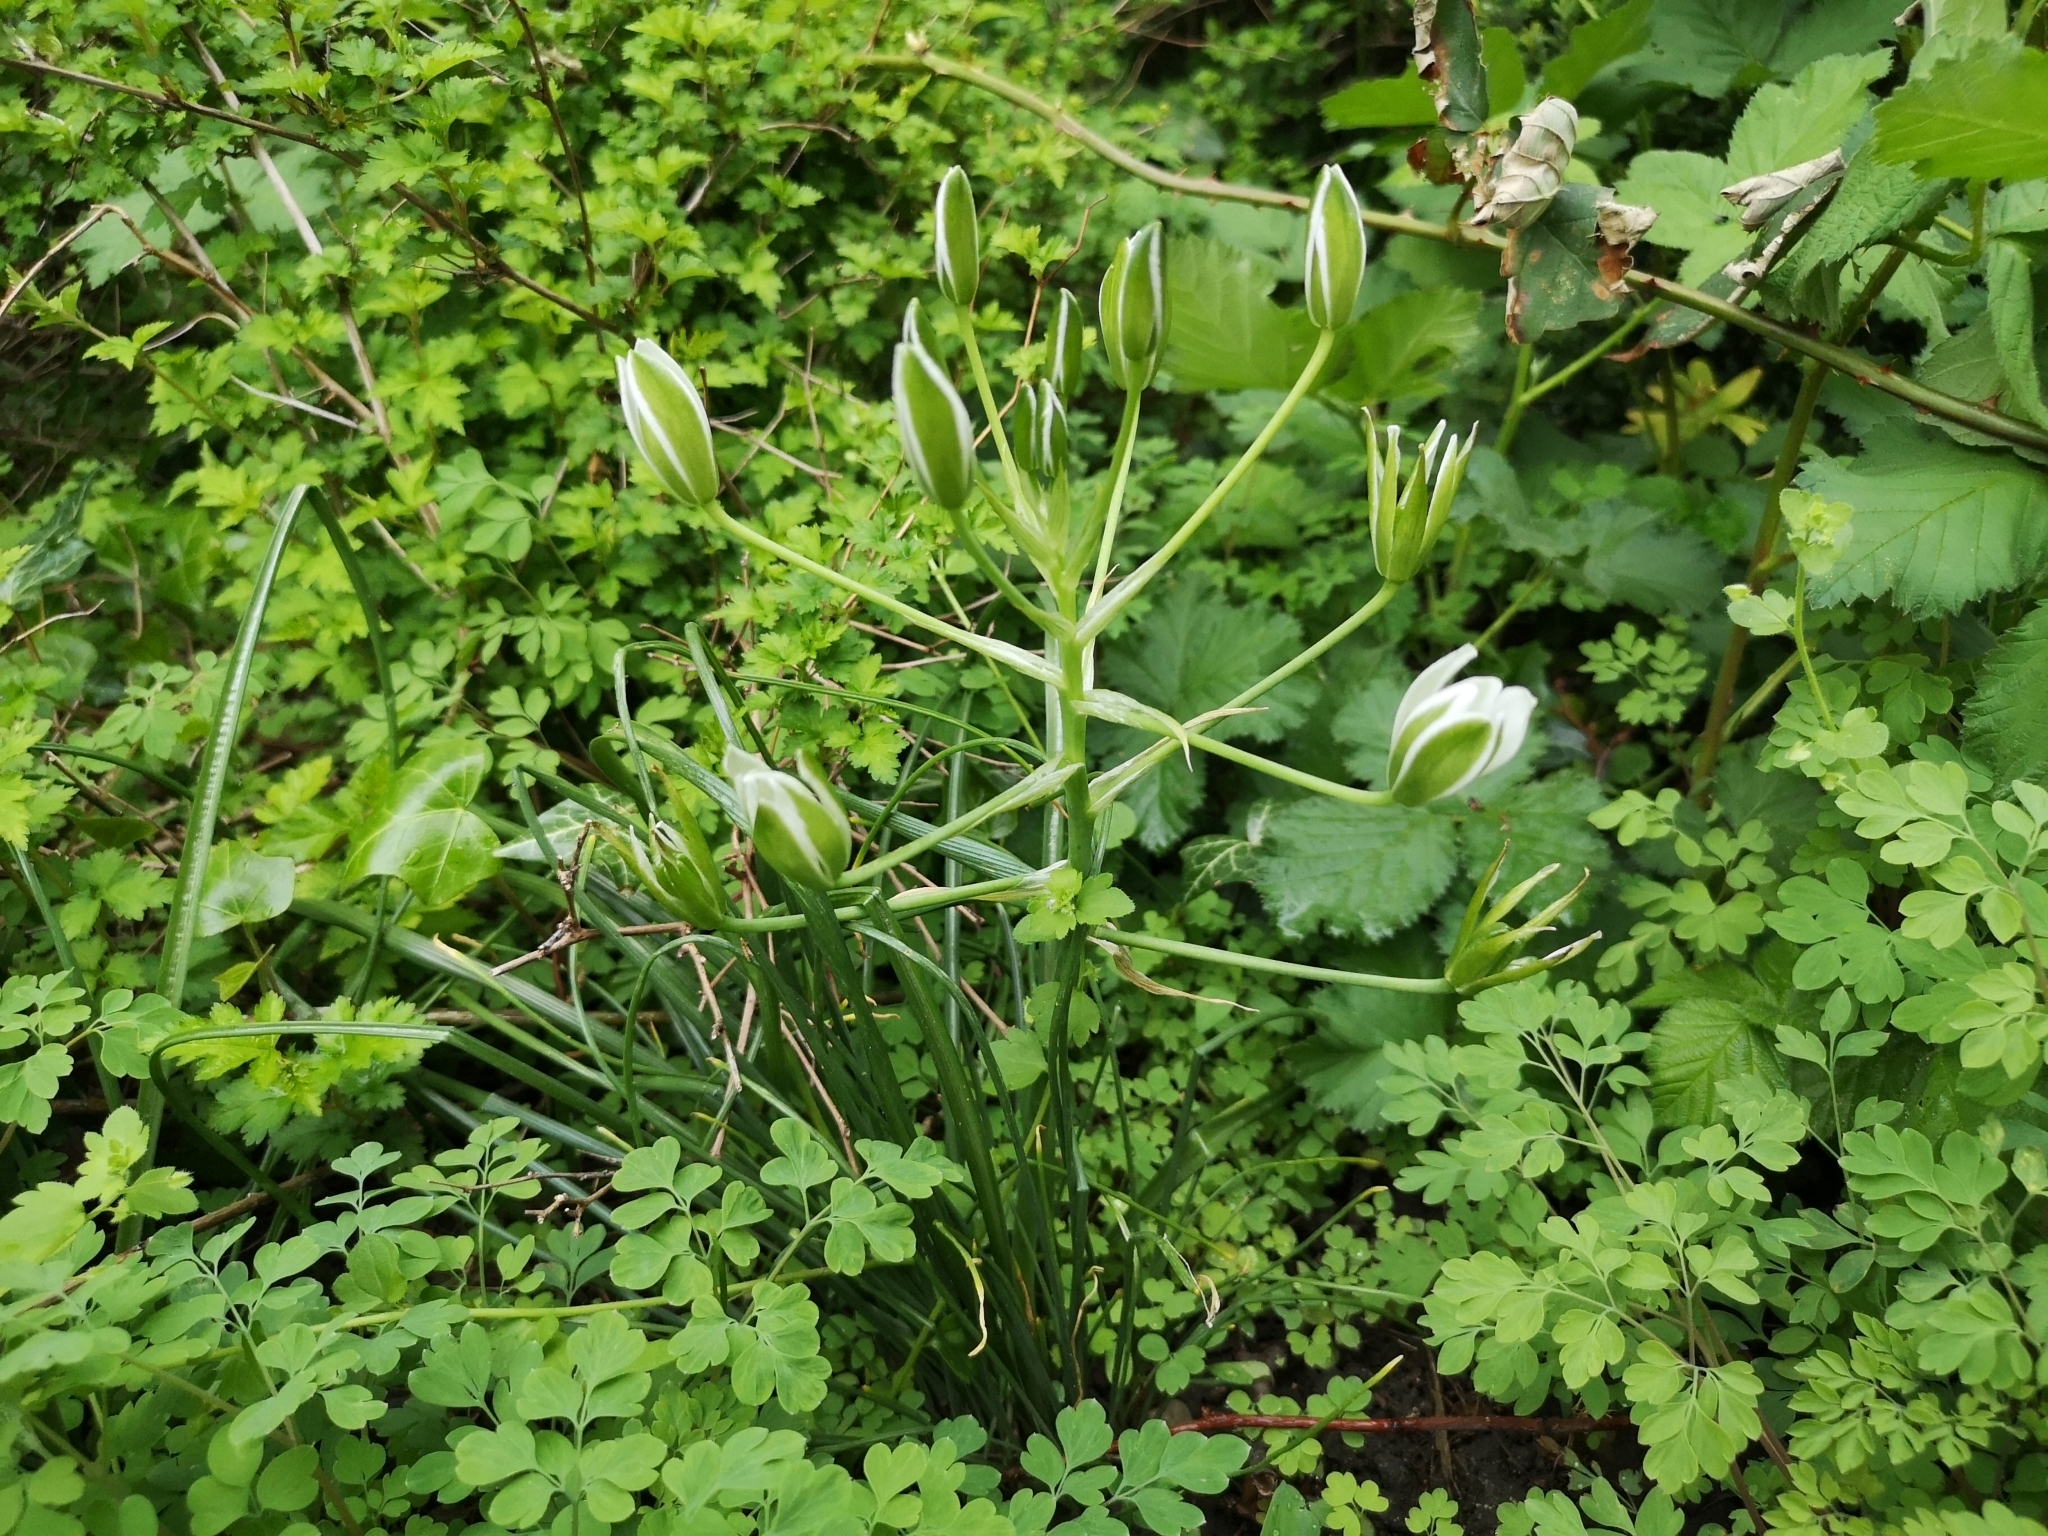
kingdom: Plantae
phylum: Tracheophyta
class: Liliopsida
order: Asparagales
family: Asparagaceae
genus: Ornithogalum
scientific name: Ornithogalum umbellatum
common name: Garden star-of-bethlehem
